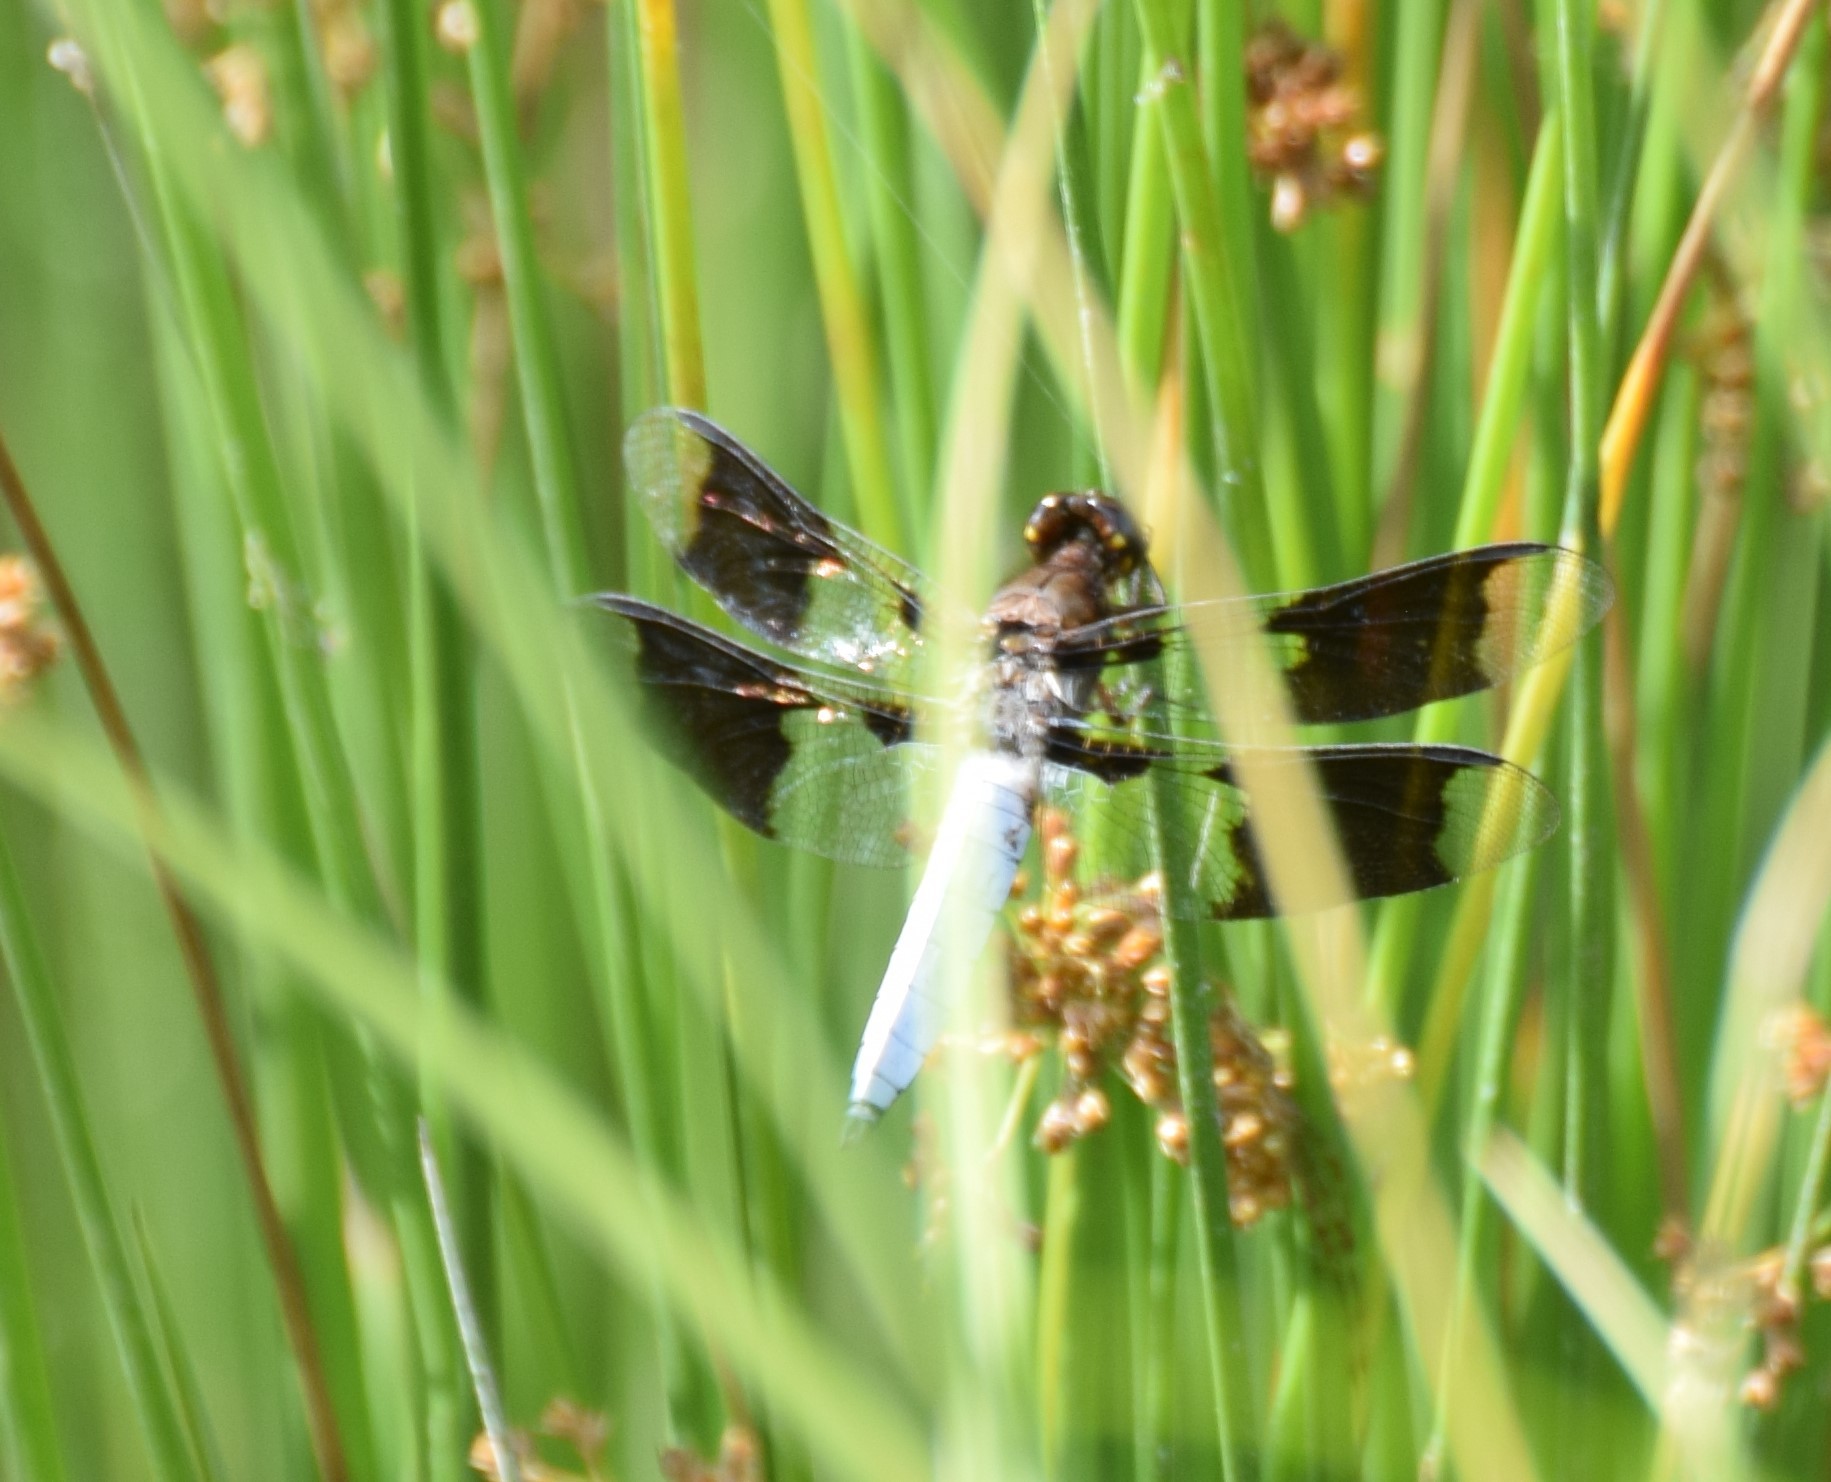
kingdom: Animalia
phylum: Arthropoda
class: Insecta
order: Odonata
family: Libellulidae
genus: Plathemis
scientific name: Plathemis lydia
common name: Common whitetail
